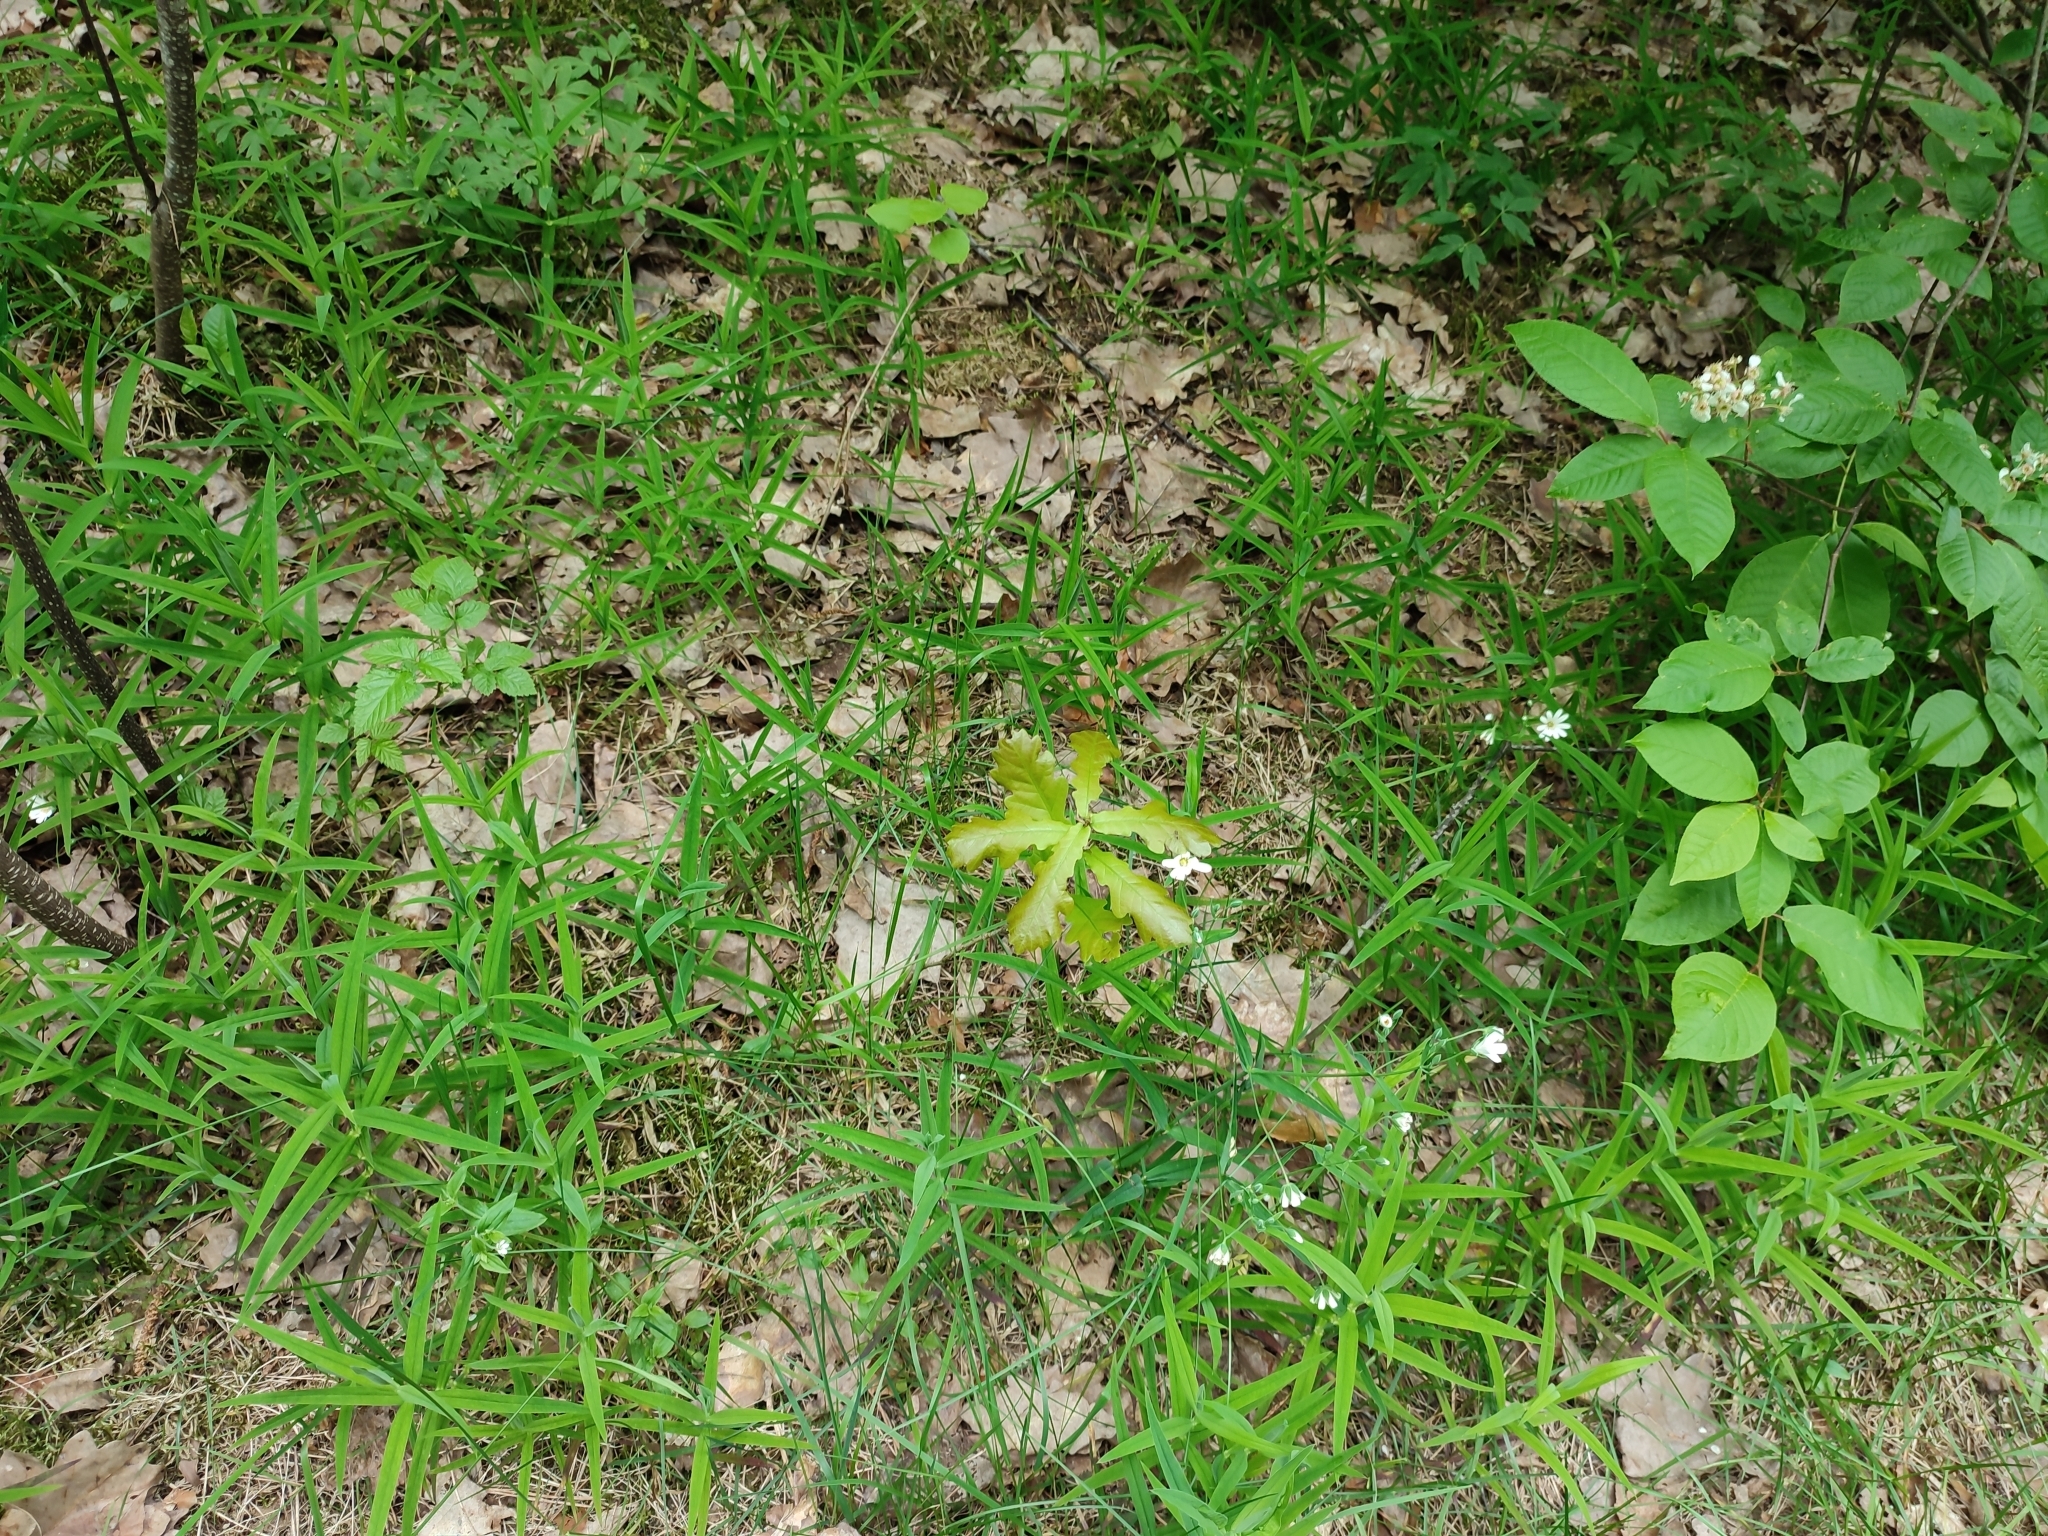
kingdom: Plantae
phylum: Tracheophyta
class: Magnoliopsida
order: Fagales
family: Fagaceae
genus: Quercus
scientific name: Quercus robur
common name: Pedunculate oak
